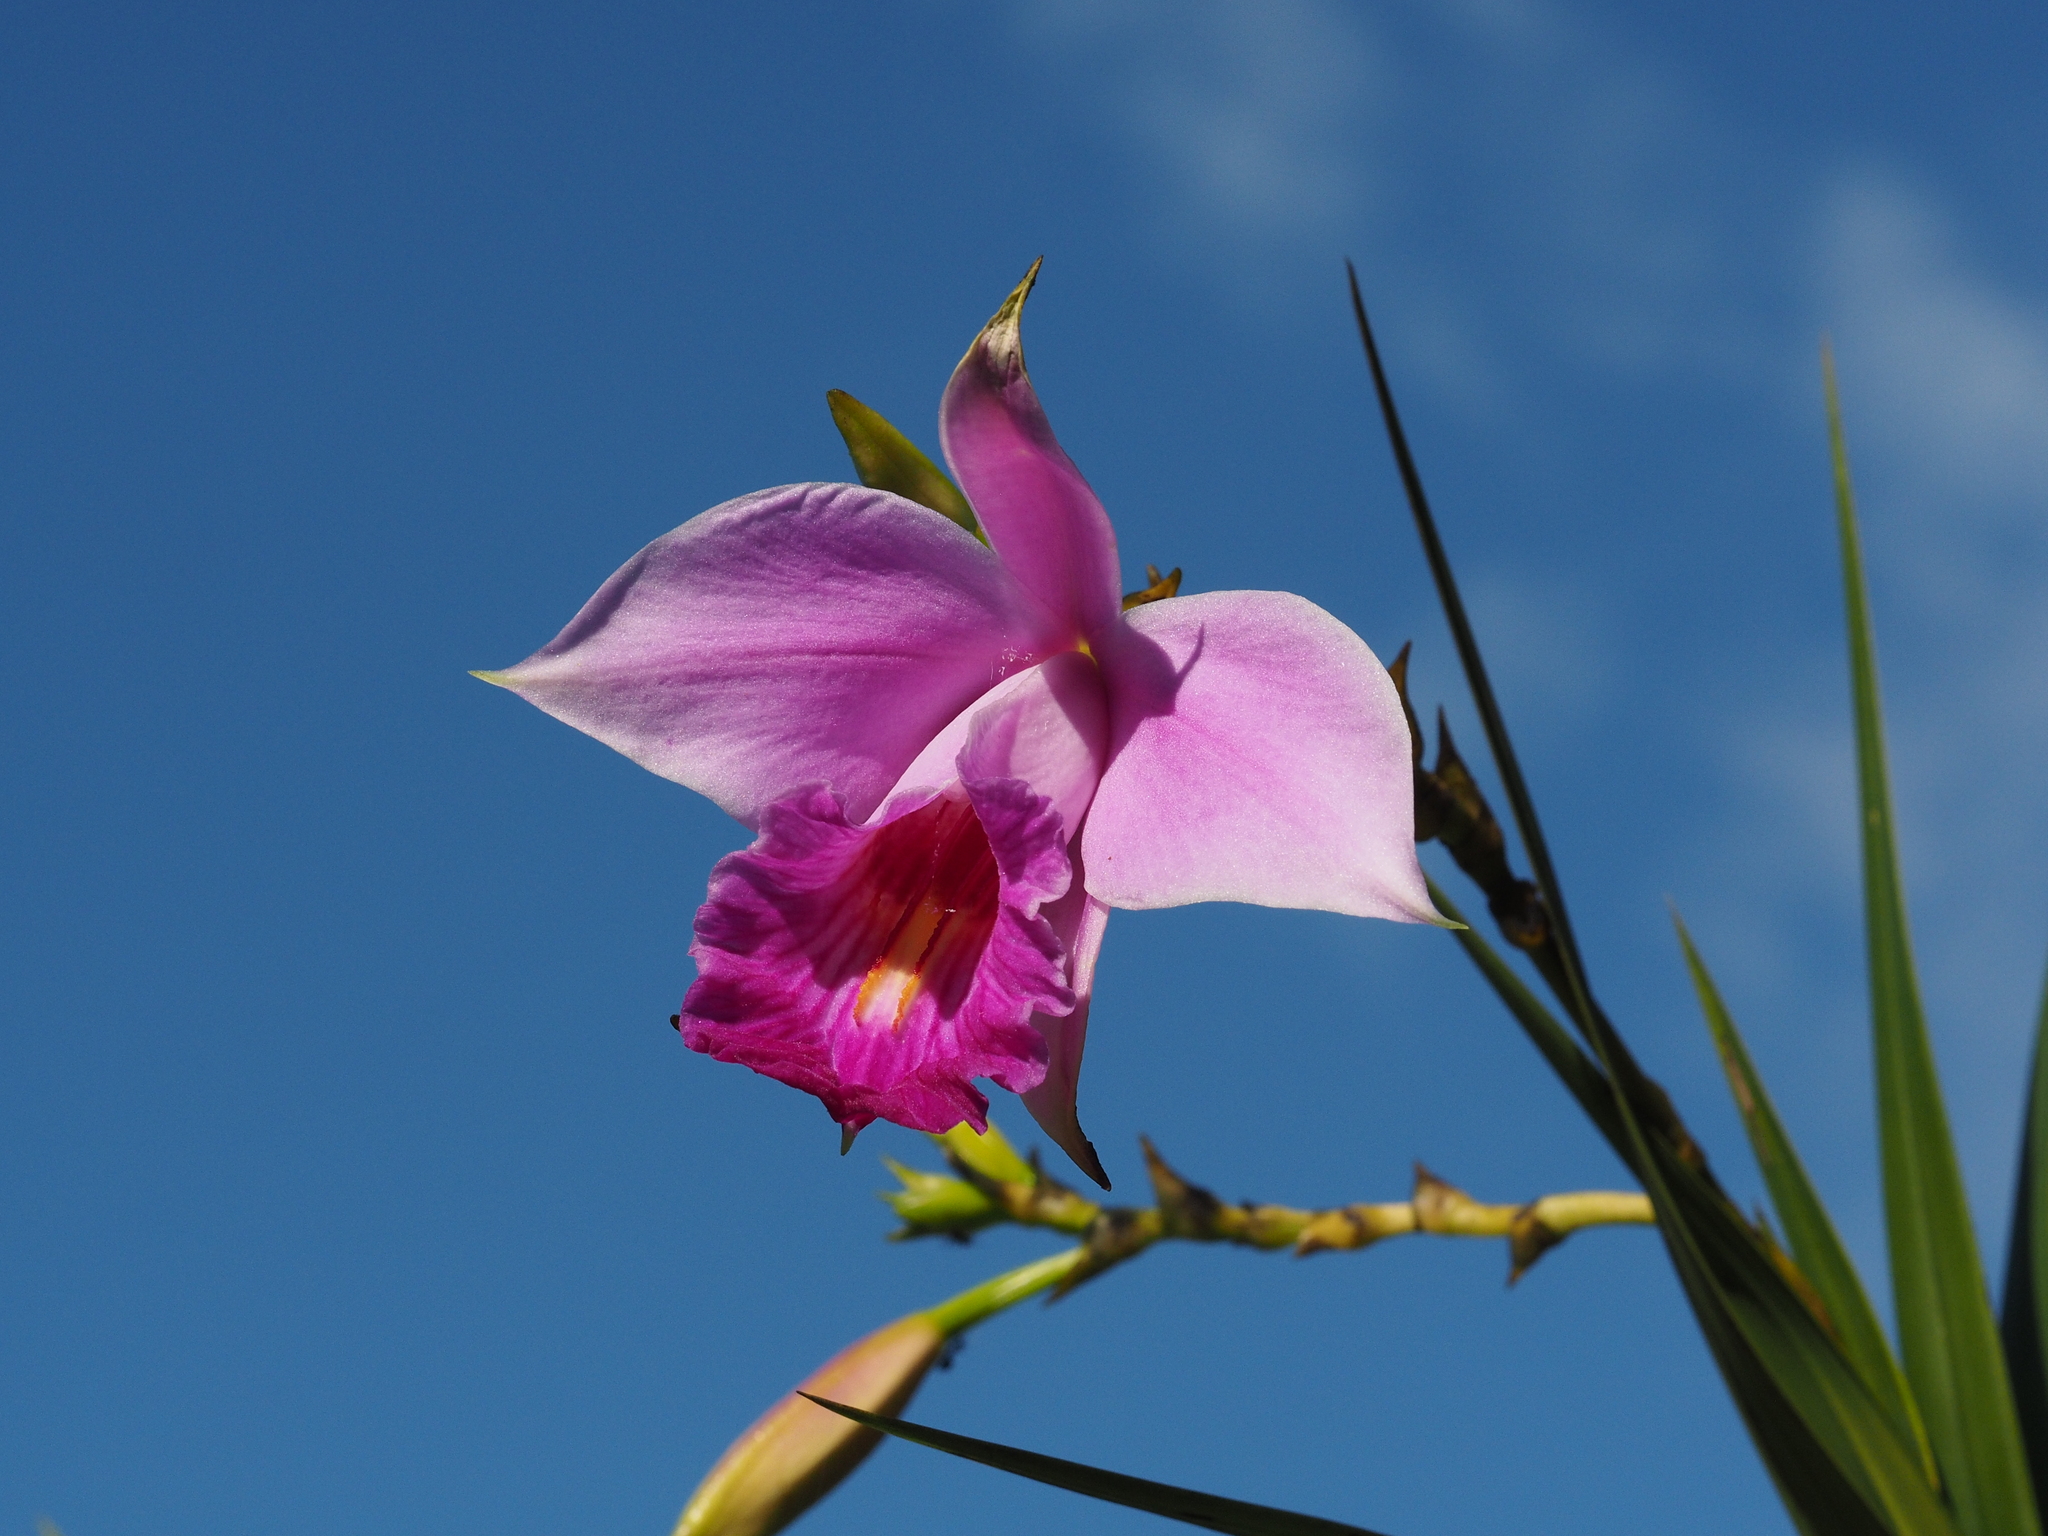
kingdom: Plantae
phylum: Tracheophyta
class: Liliopsida
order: Asparagales
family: Orchidaceae
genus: Arundina
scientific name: Arundina graminifolia
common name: Bamboo orchid
